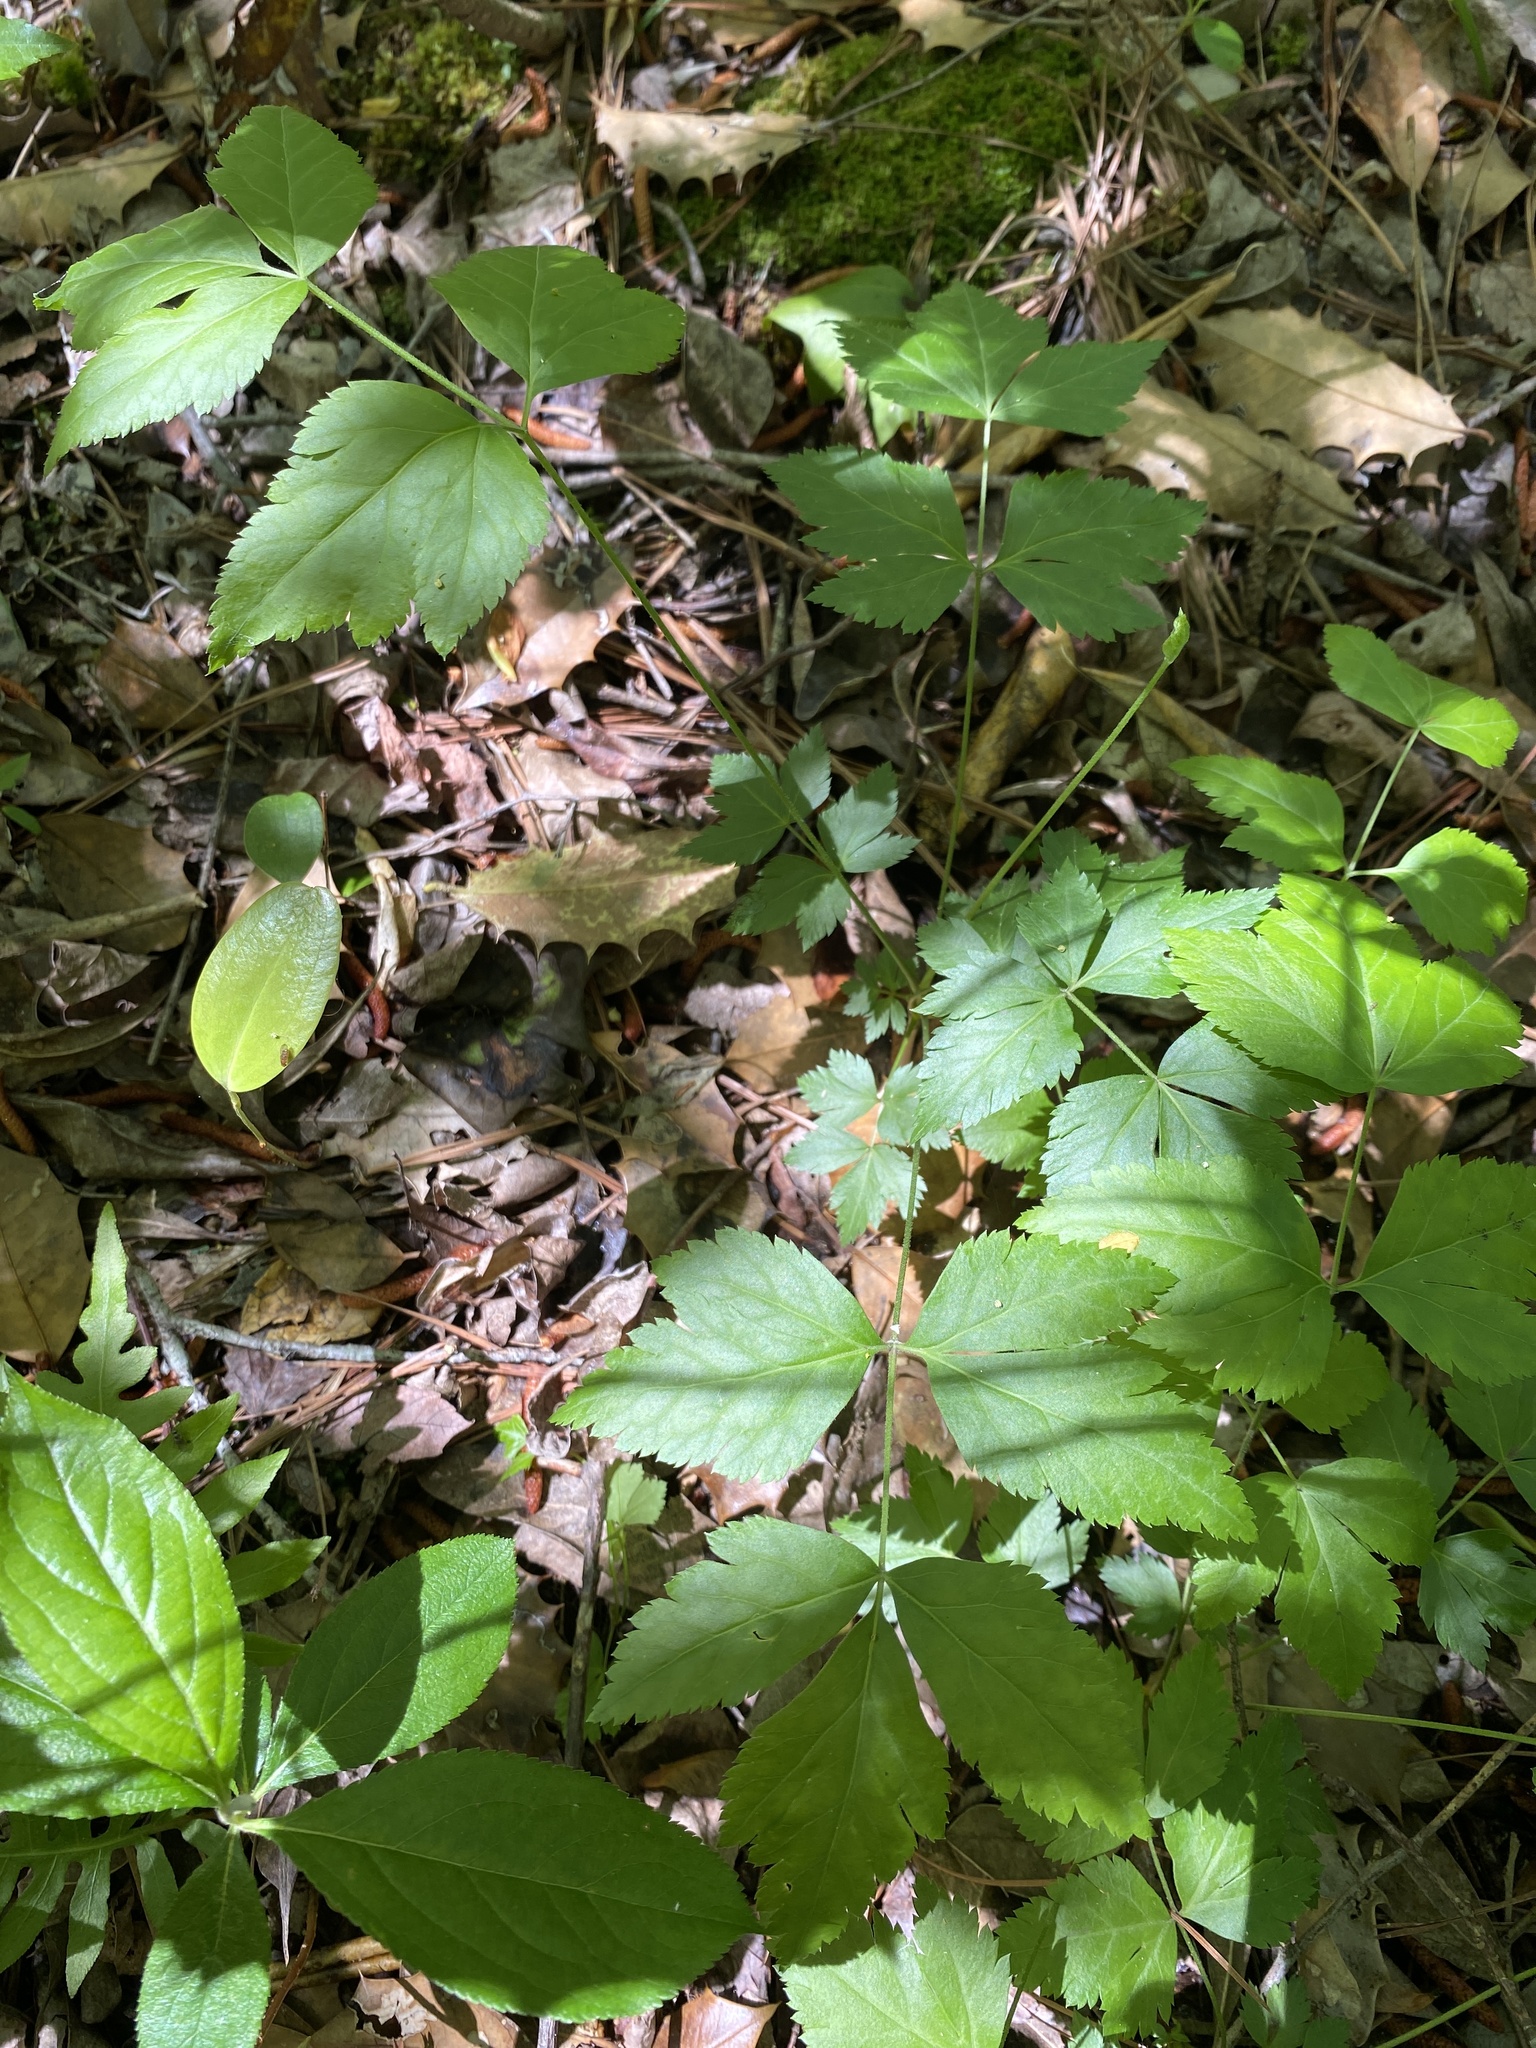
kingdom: Plantae
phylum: Tracheophyta
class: Magnoliopsida
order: Ranunculales
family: Ranunculaceae
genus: Xanthorhiza
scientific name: Xanthorhiza simplicissima
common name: Yellowroot
